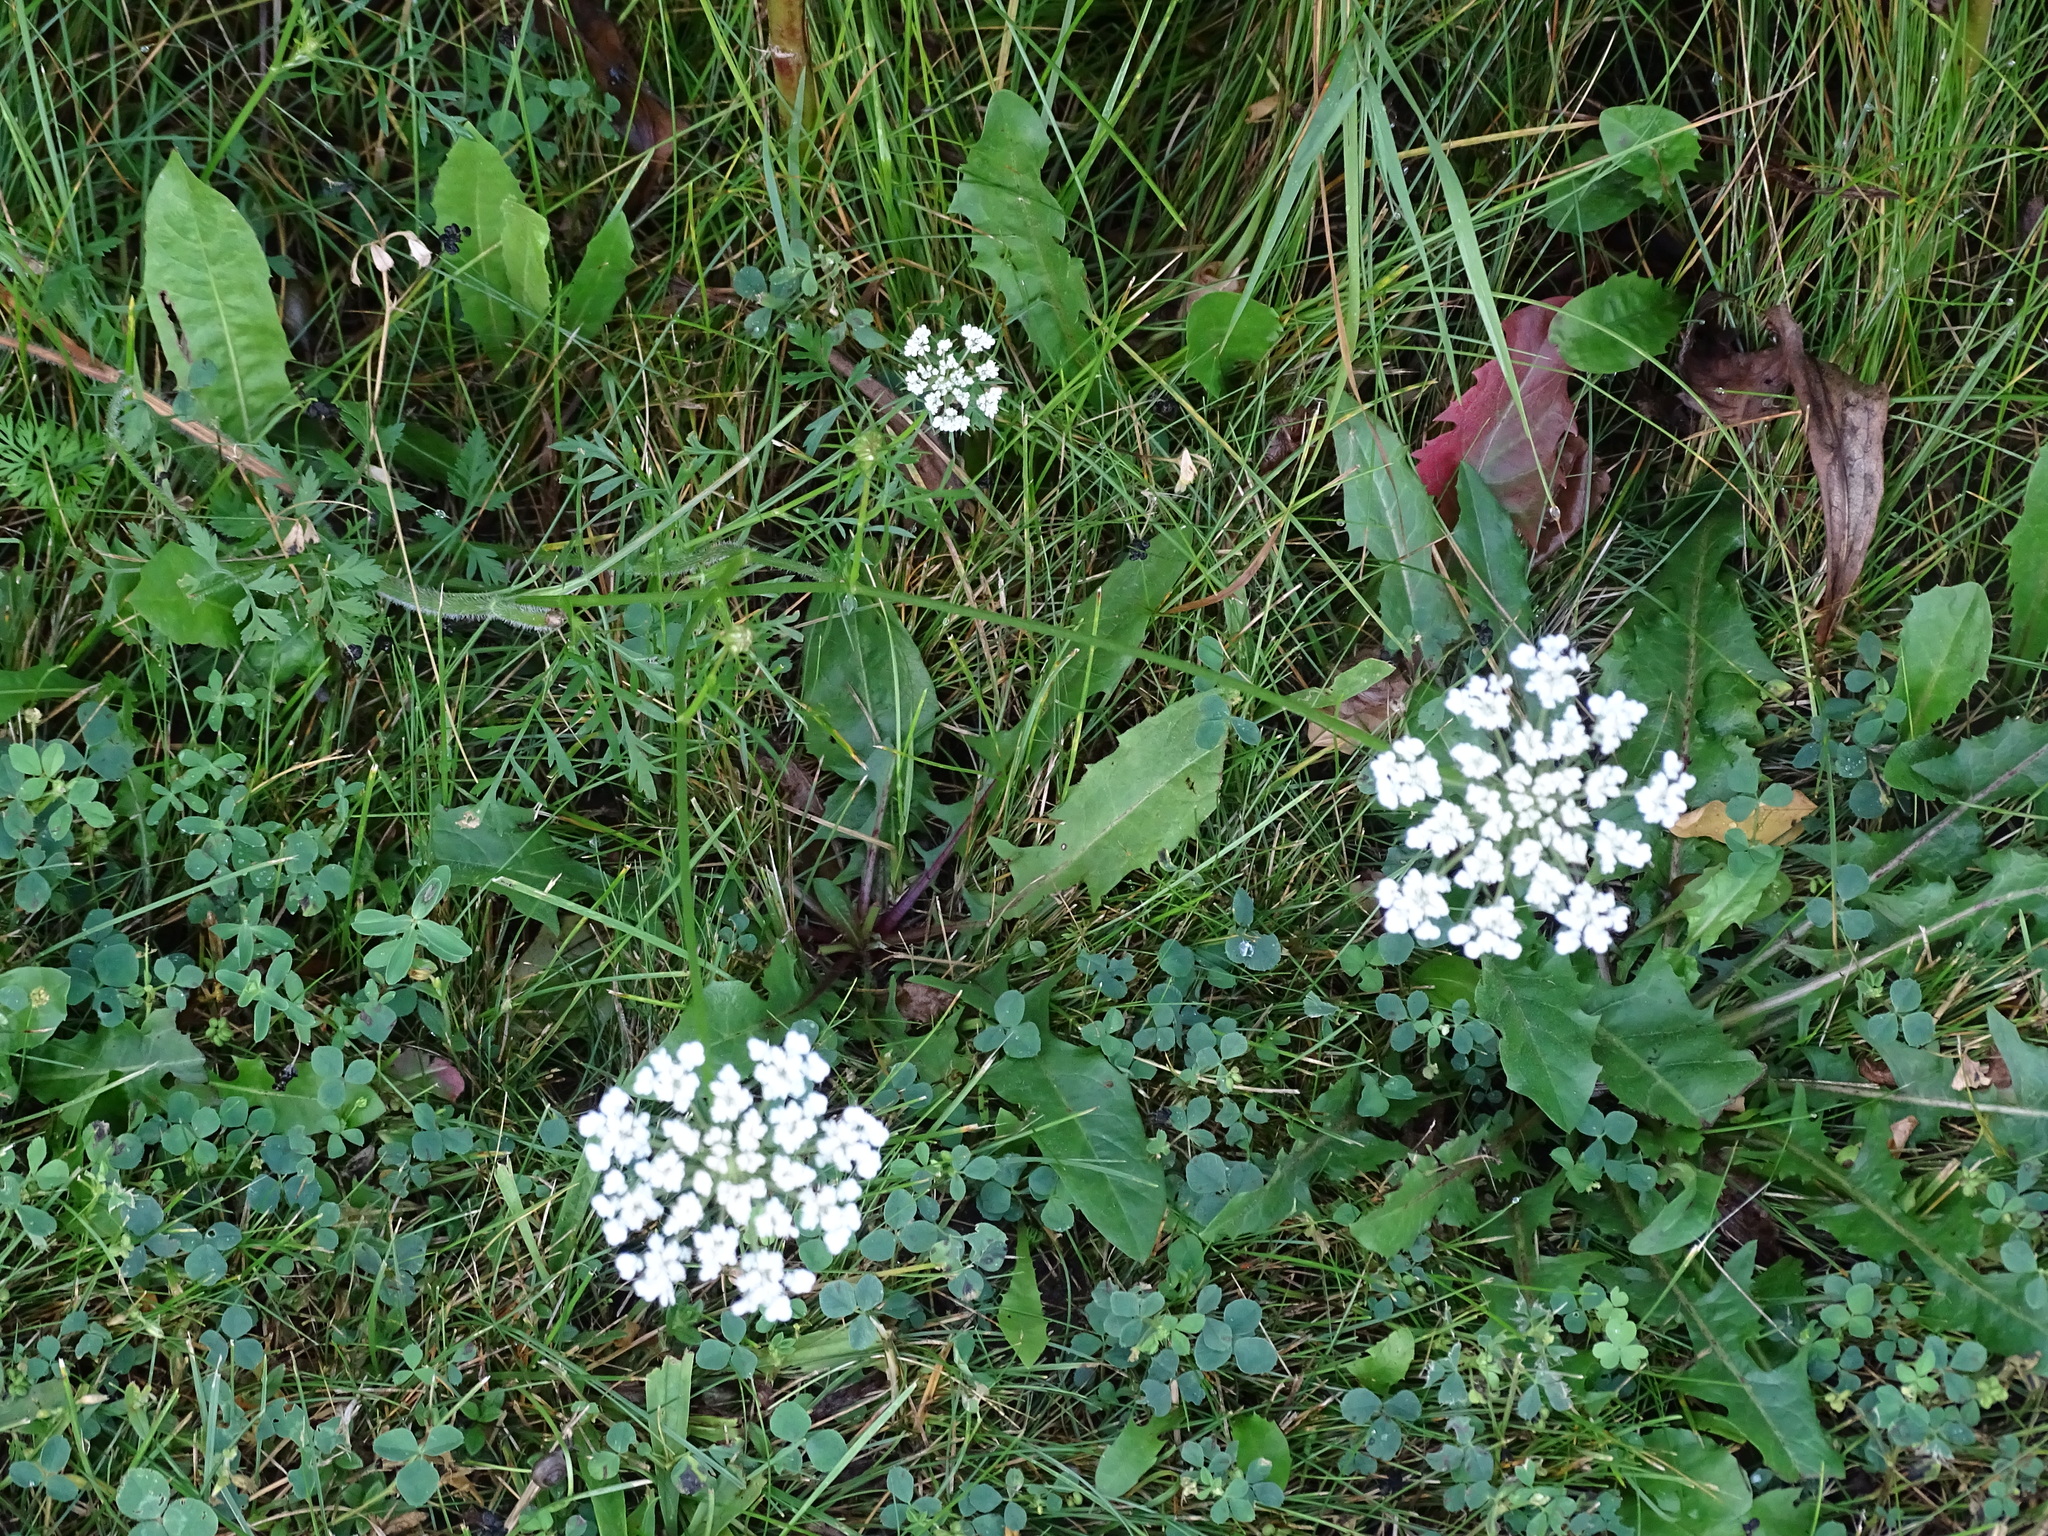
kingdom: Plantae
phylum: Tracheophyta
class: Magnoliopsida
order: Apiales
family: Apiaceae
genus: Daucus
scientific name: Daucus carota
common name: Wild carrot
